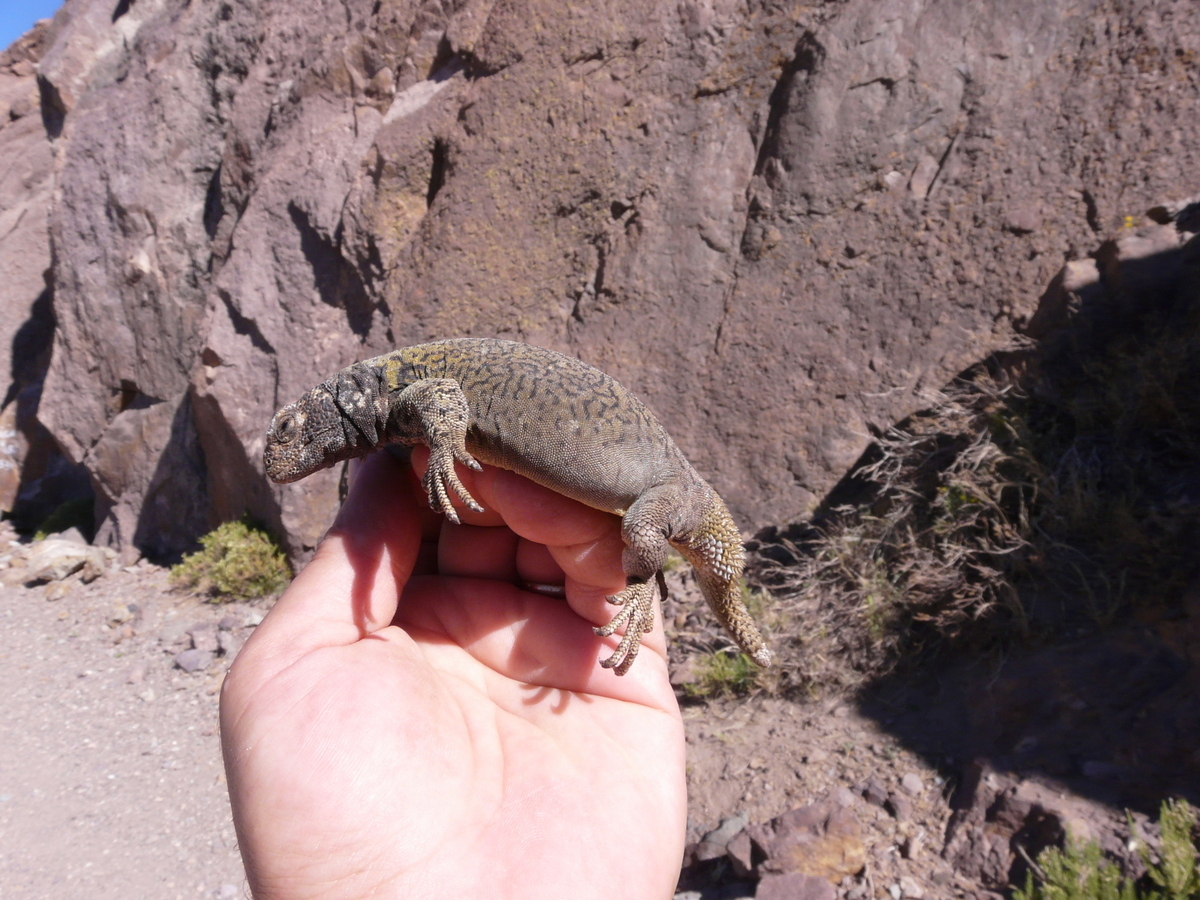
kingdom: Animalia
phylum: Chordata
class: Squamata
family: Liolaemidae
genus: Phymaturus
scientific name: Phymaturus verdugo
